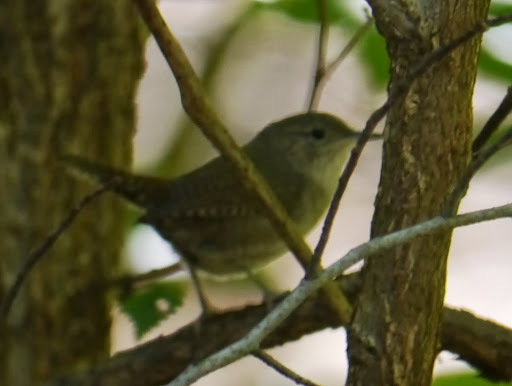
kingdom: Animalia
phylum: Chordata
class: Aves
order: Passeriformes
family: Troglodytidae
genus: Troglodytes
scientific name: Troglodytes aedon
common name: House wren
